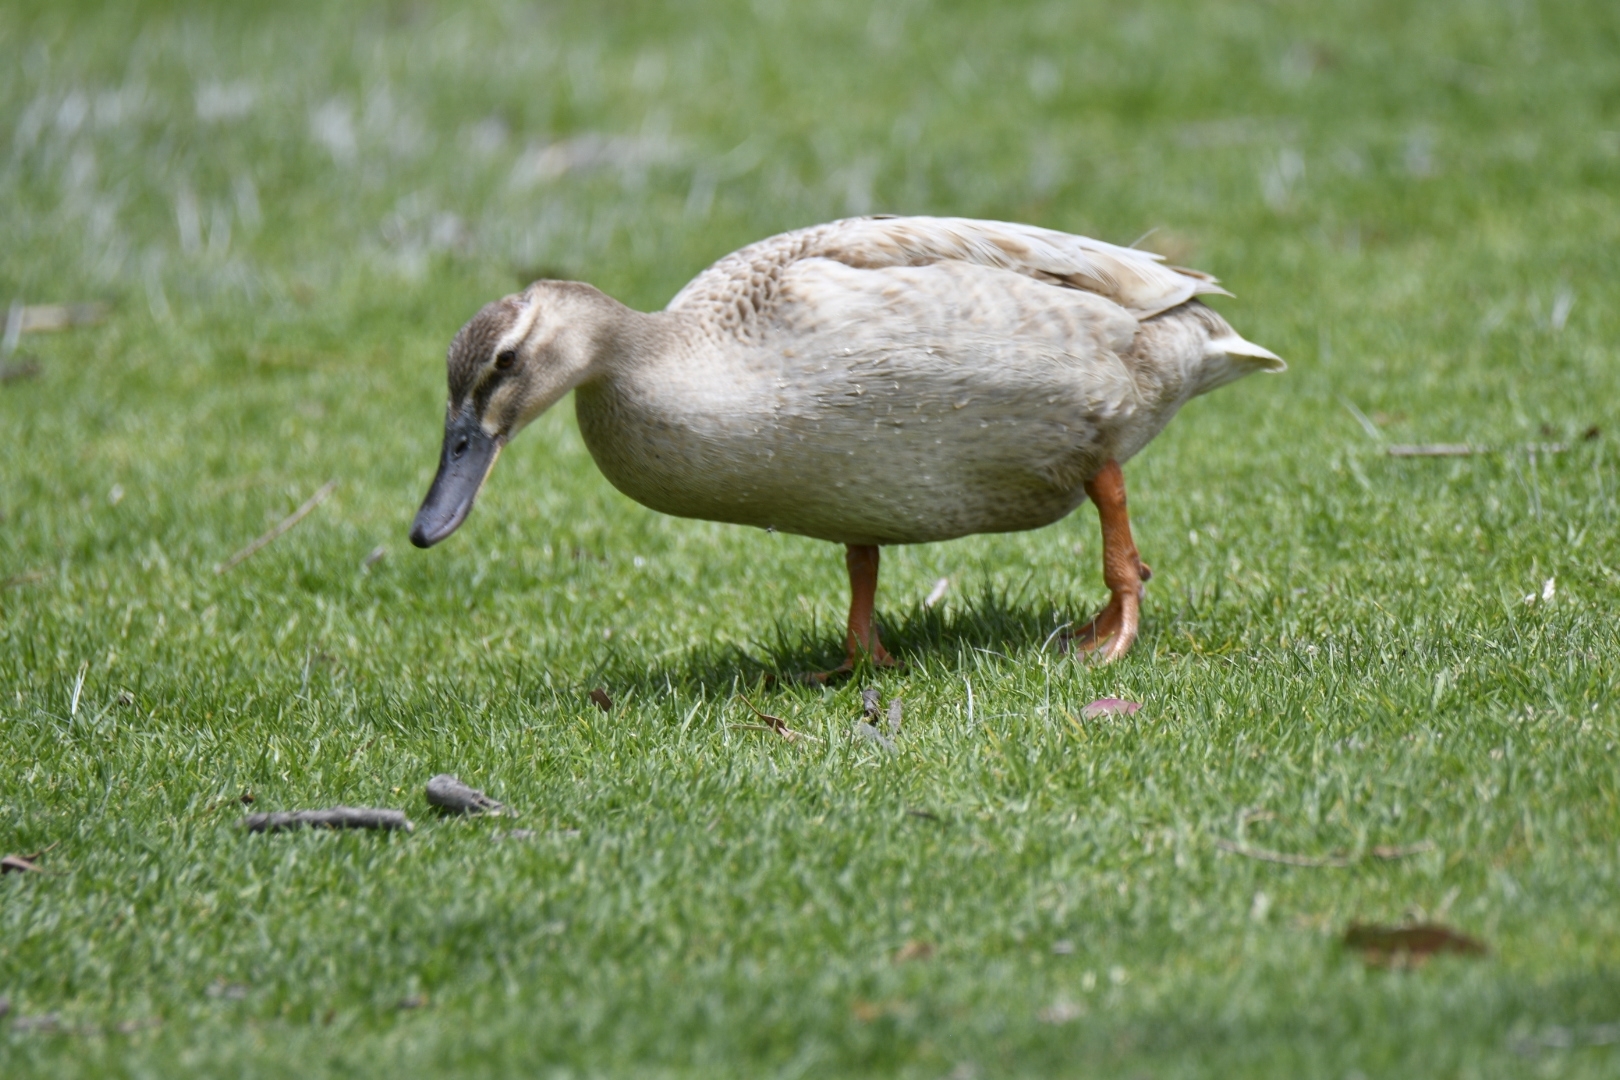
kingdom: Animalia
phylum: Chordata
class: Aves
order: Anseriformes
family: Anatidae
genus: Anas
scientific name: Anas platyrhynchos
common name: Mallard
